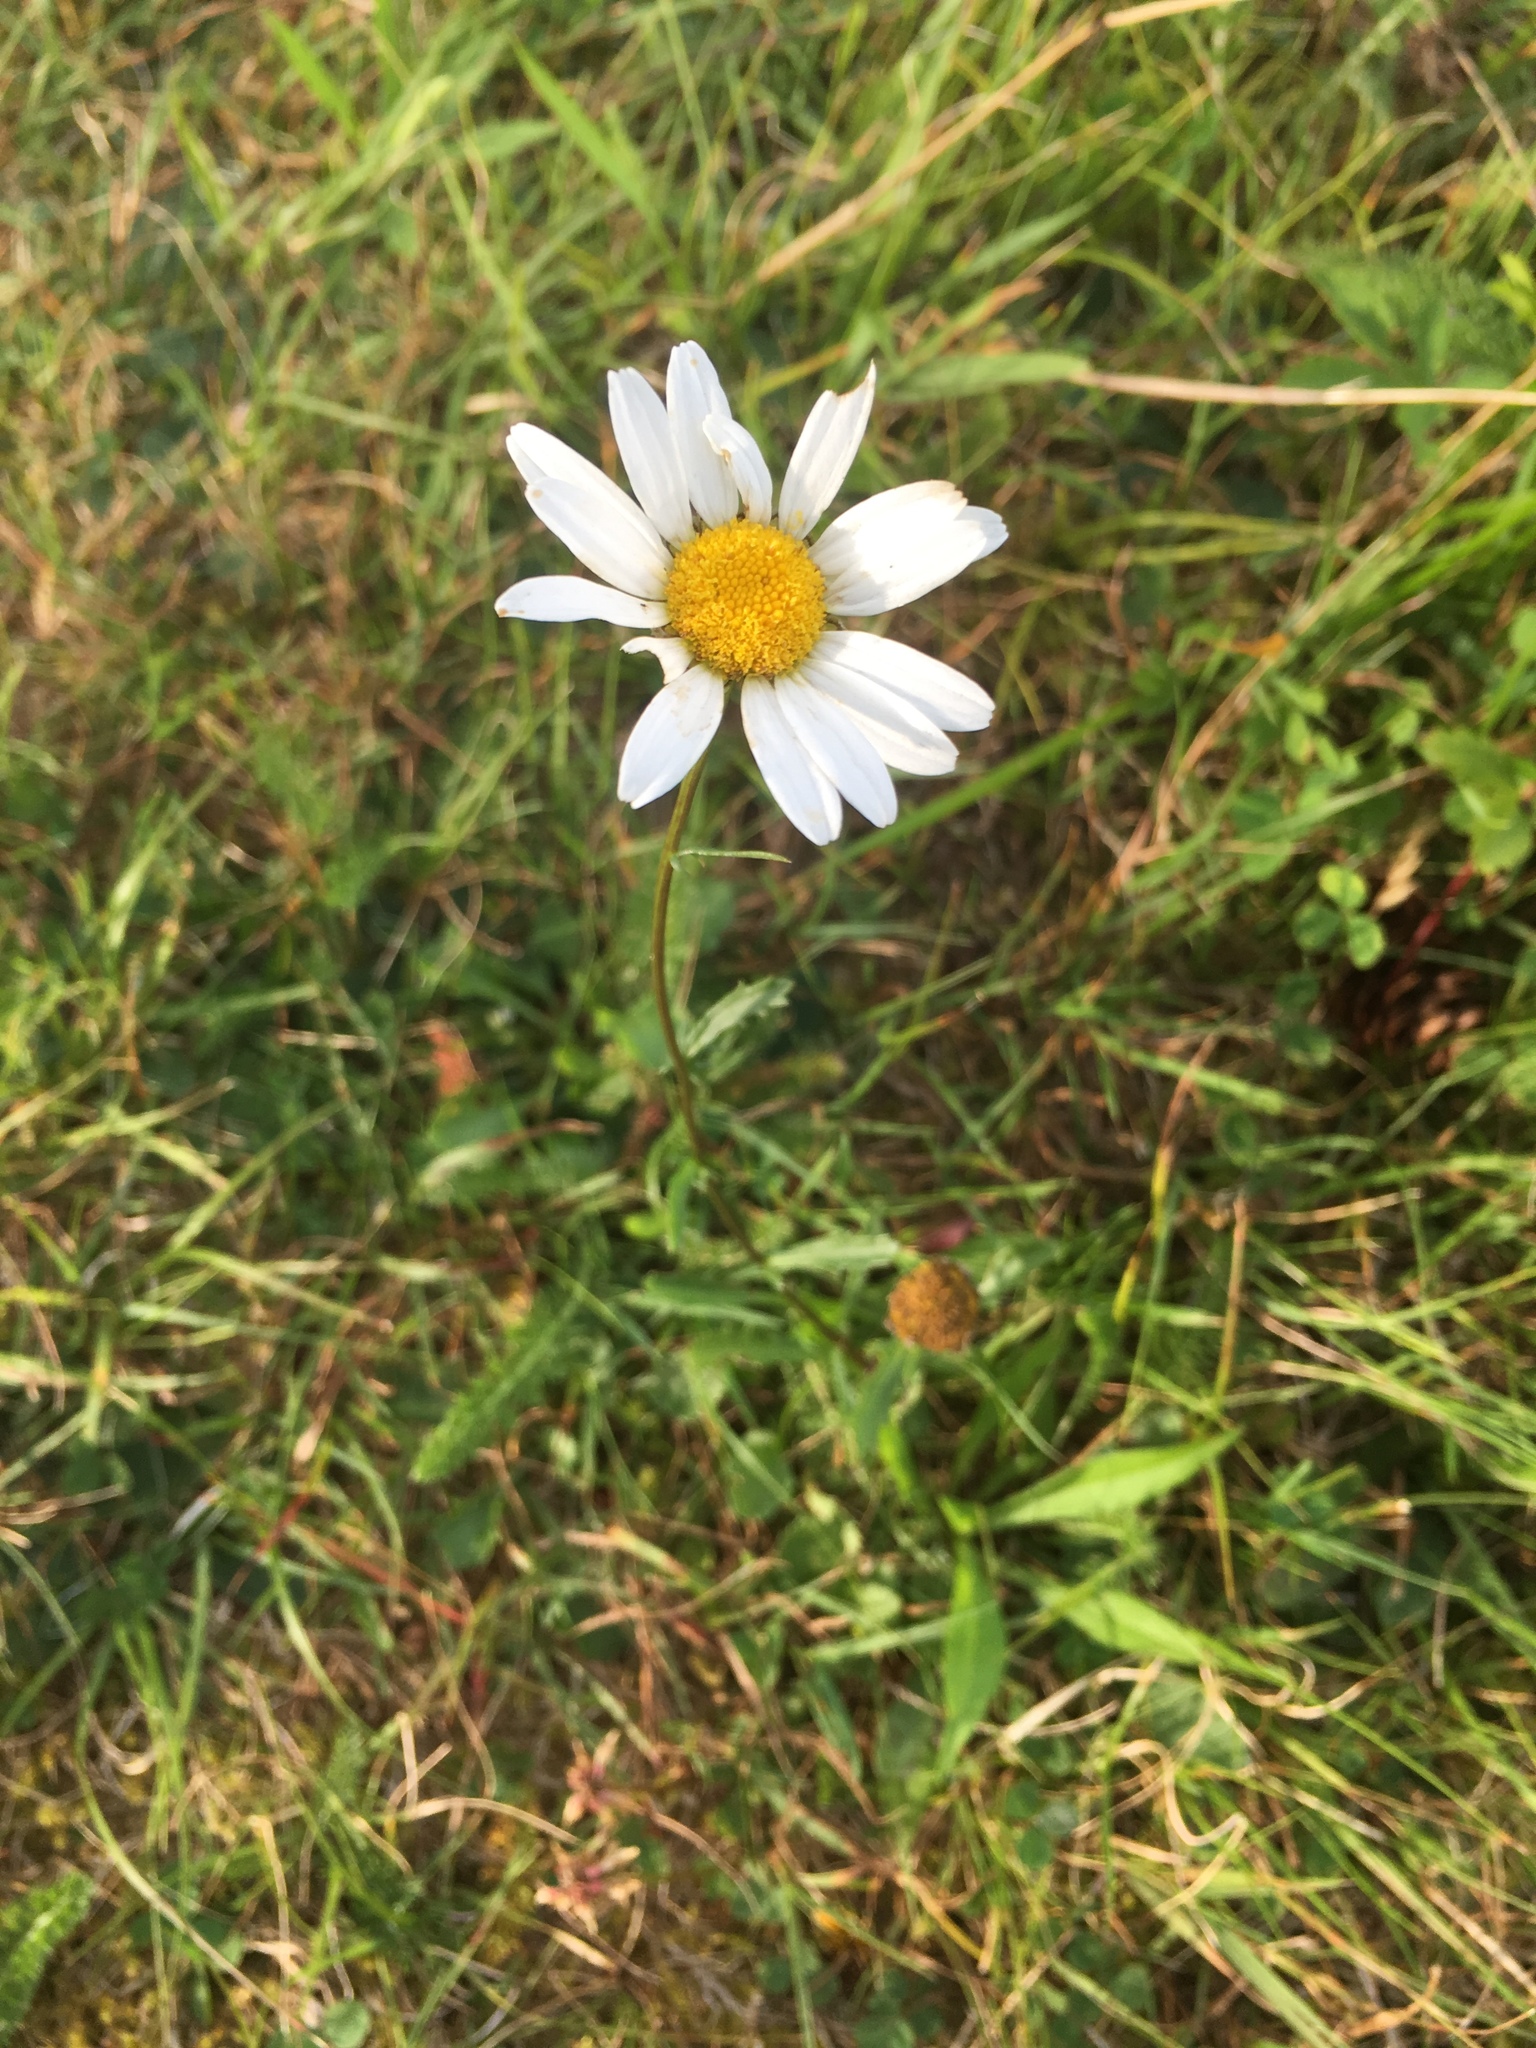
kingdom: Plantae
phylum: Tracheophyta
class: Magnoliopsida
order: Asterales
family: Asteraceae
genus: Leucanthemum
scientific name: Leucanthemum vulgare
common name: Oxeye daisy
